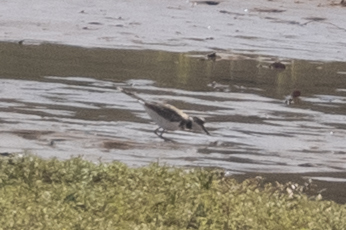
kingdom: Animalia
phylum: Chordata
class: Aves
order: Charadriiformes
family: Charadriidae
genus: Charadrius
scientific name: Charadrius vociferus
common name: Killdeer
